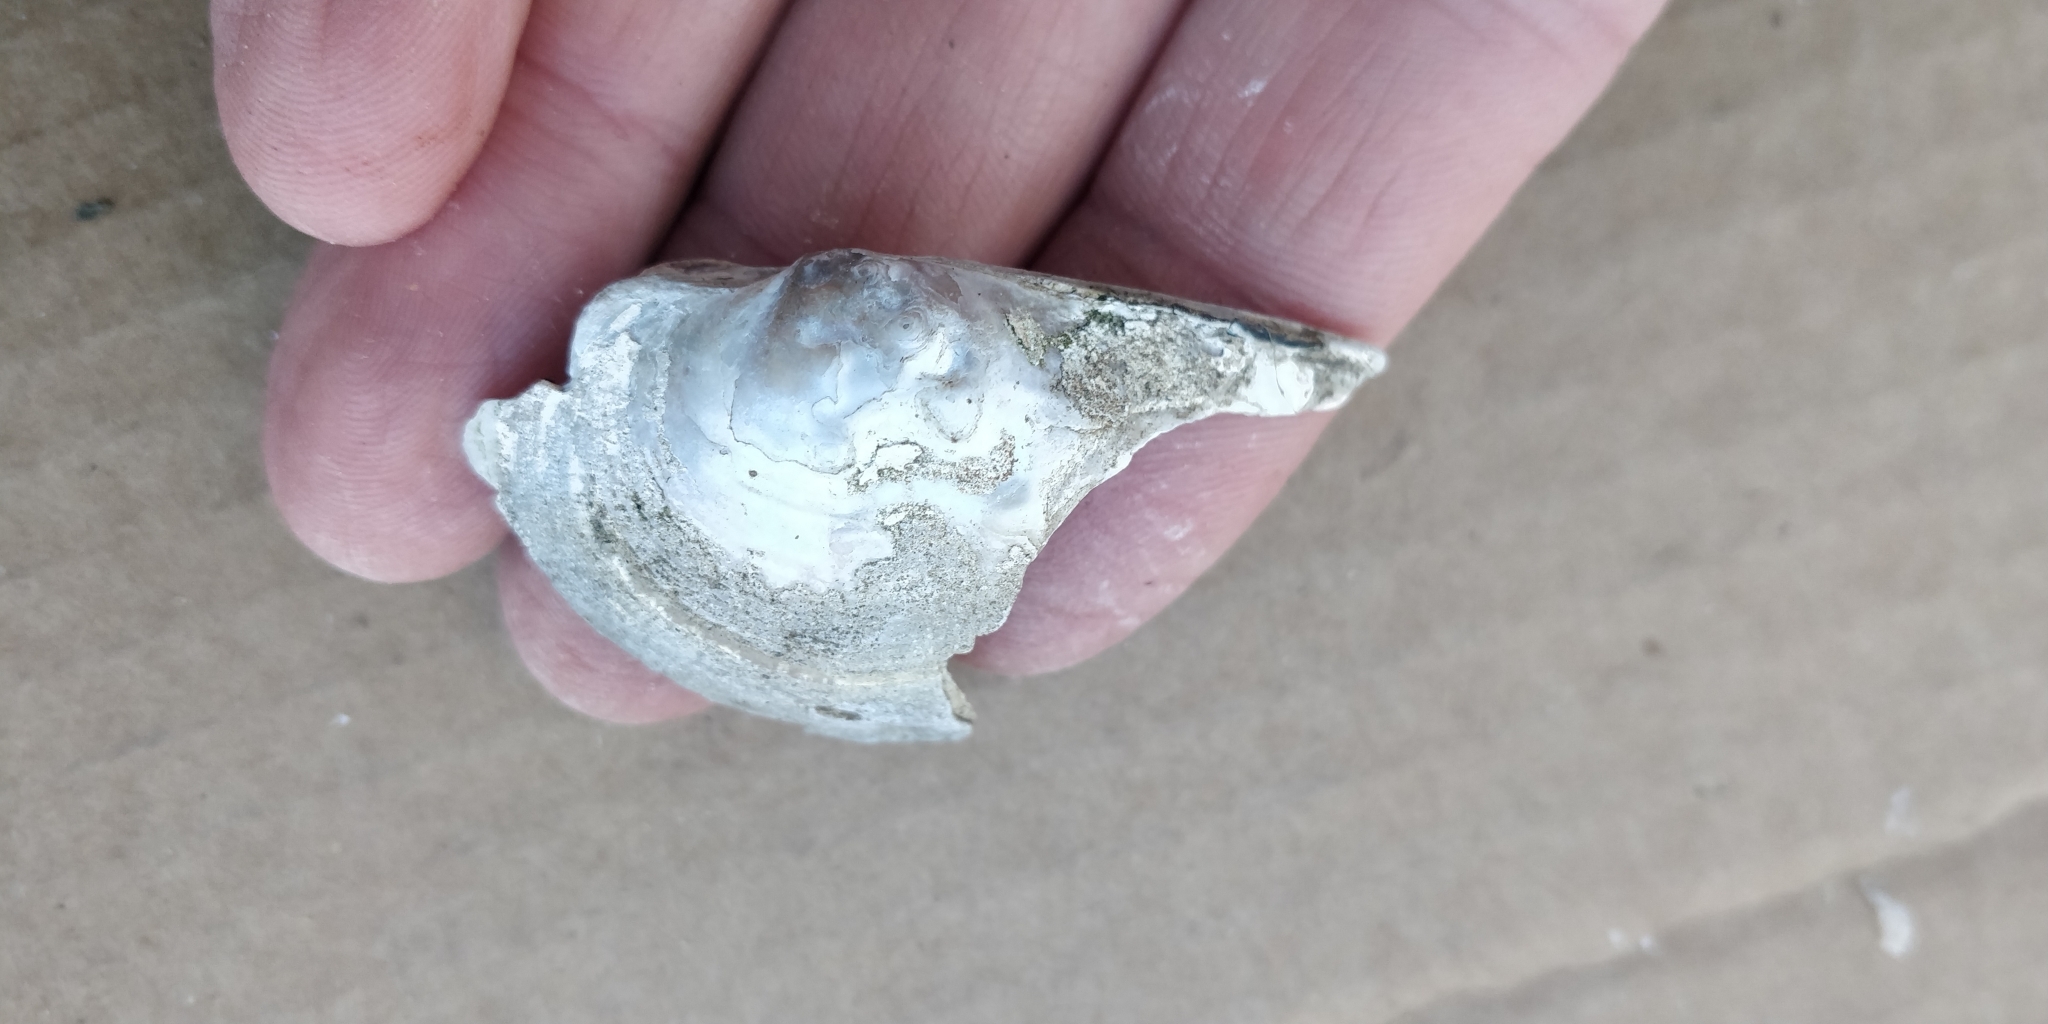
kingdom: Animalia
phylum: Mollusca
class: Bivalvia
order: Unionida
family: Unionidae
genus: Arcidens
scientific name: Arcidens confragosus
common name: Rock pocketbook
